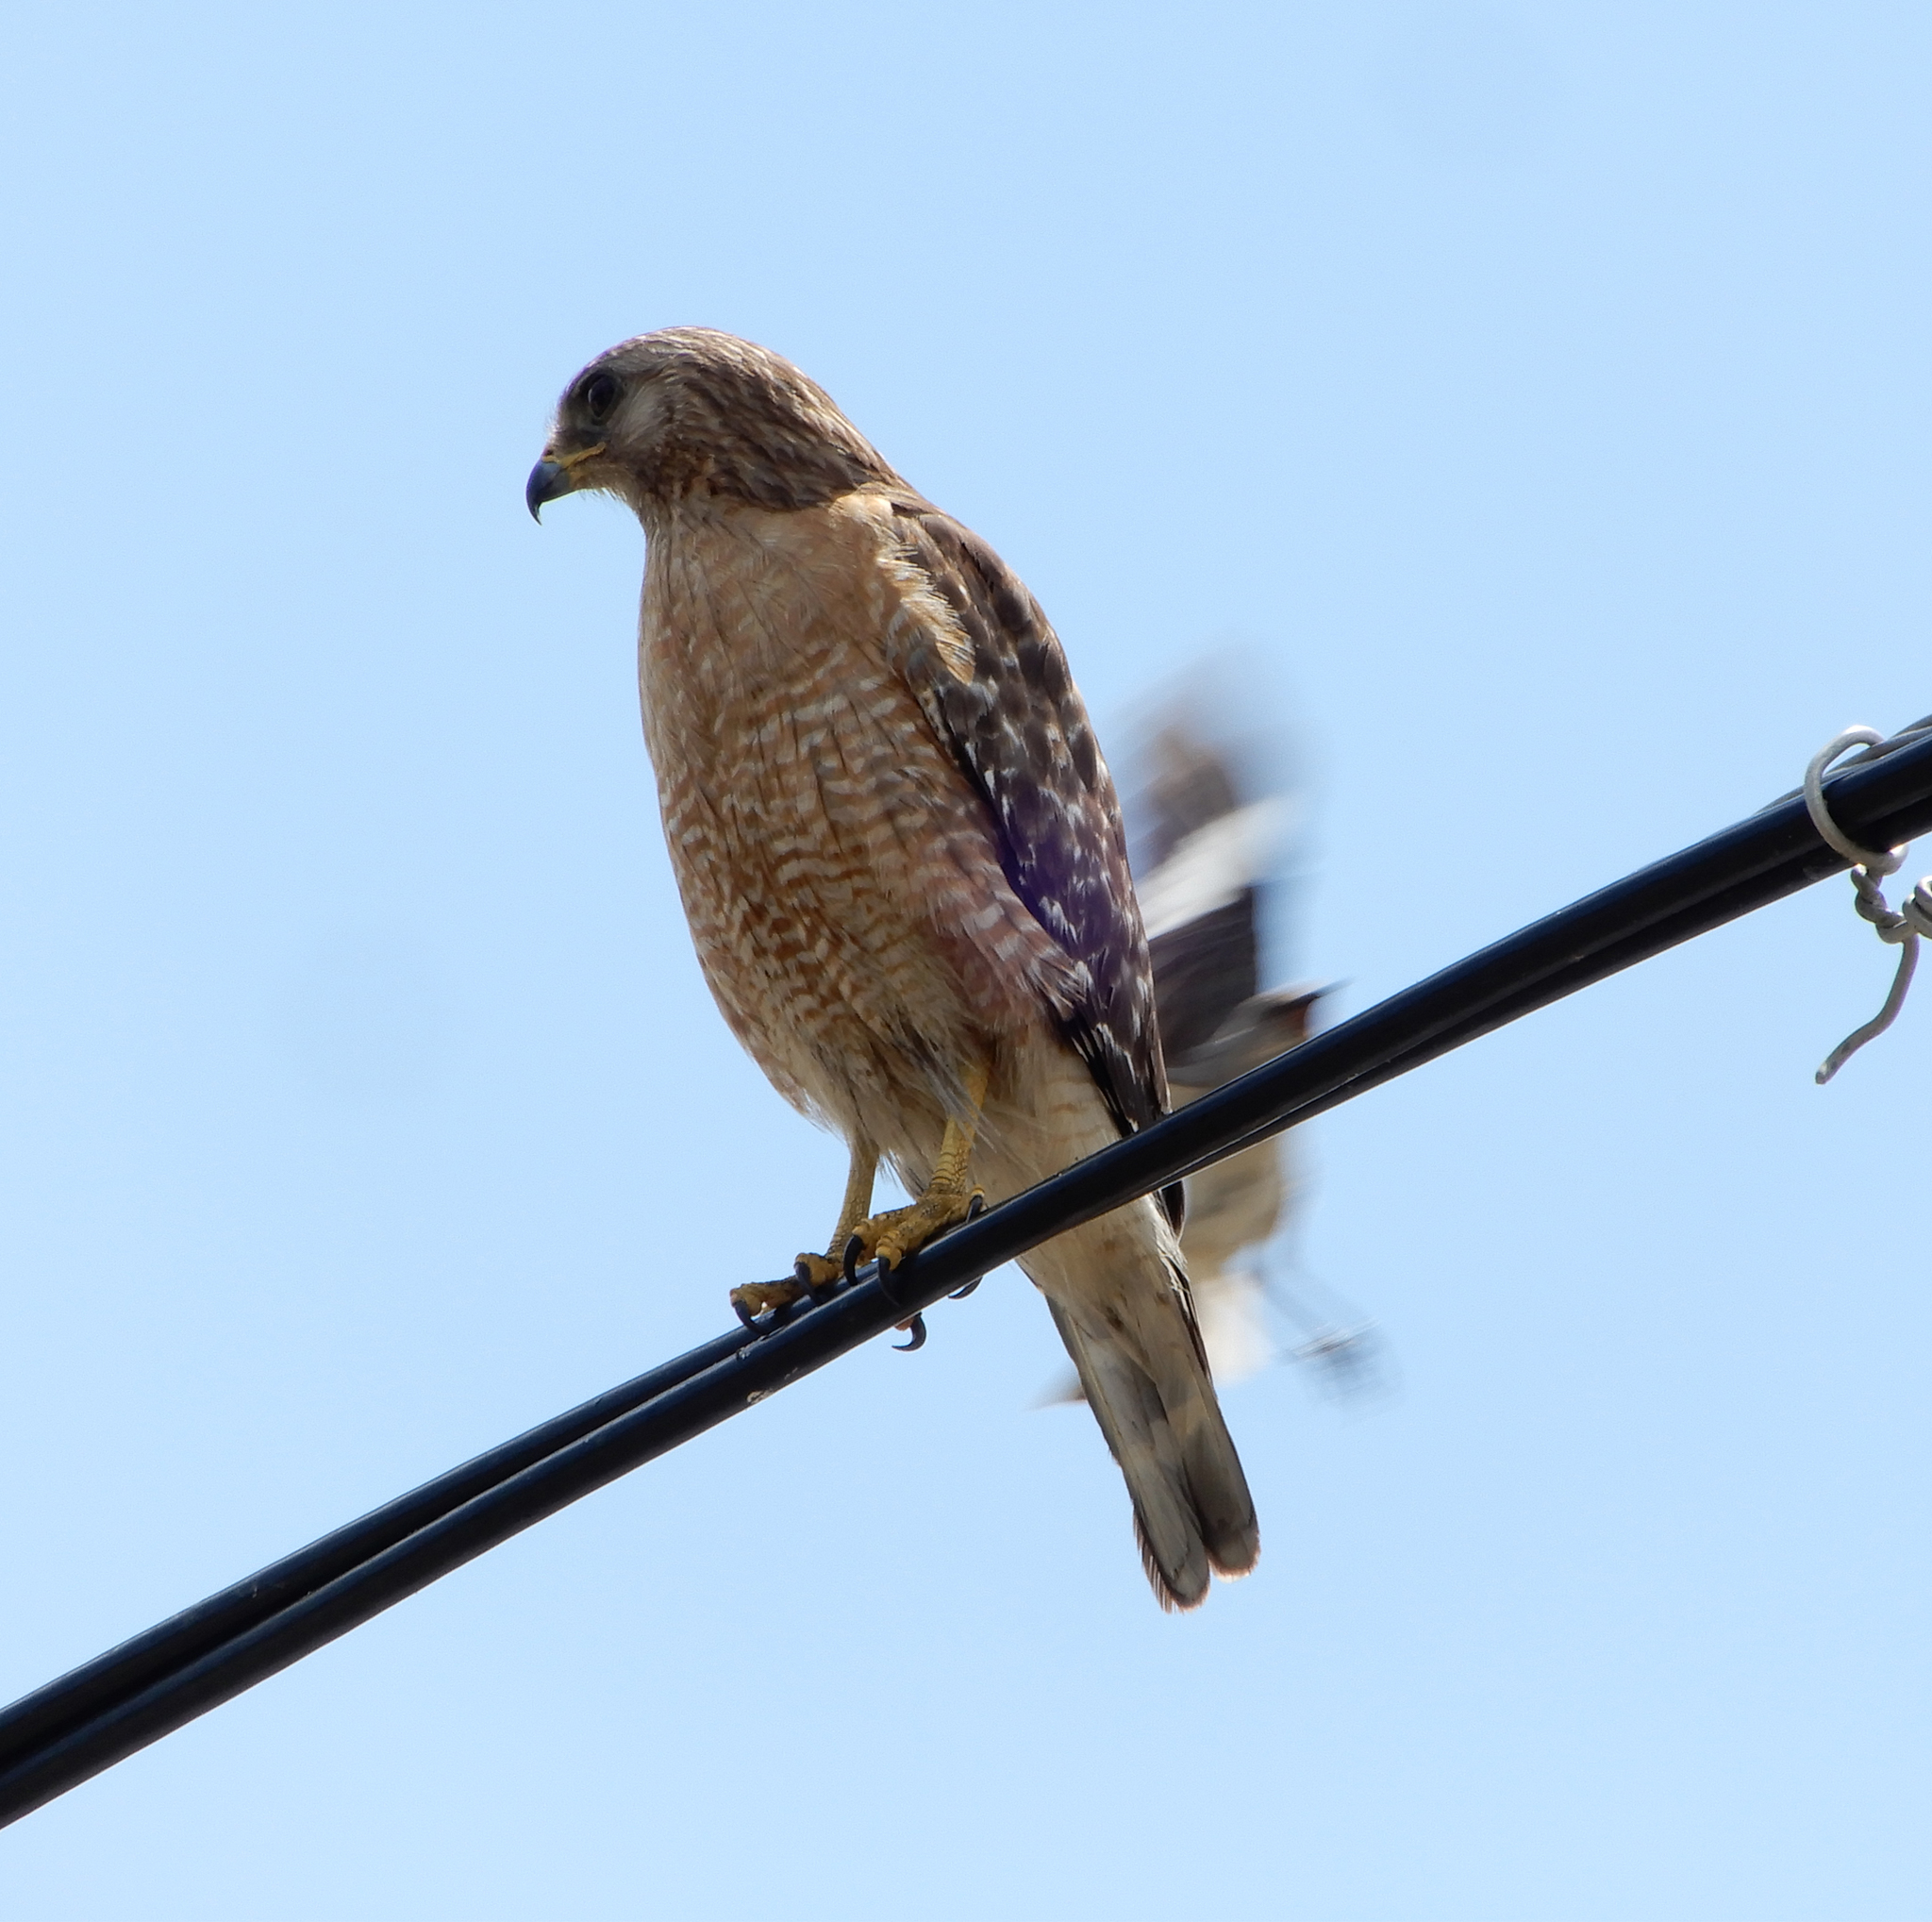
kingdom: Animalia
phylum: Chordata
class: Aves
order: Accipitriformes
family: Accipitridae
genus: Buteo
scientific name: Buteo lineatus
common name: Red-shouldered hawk
